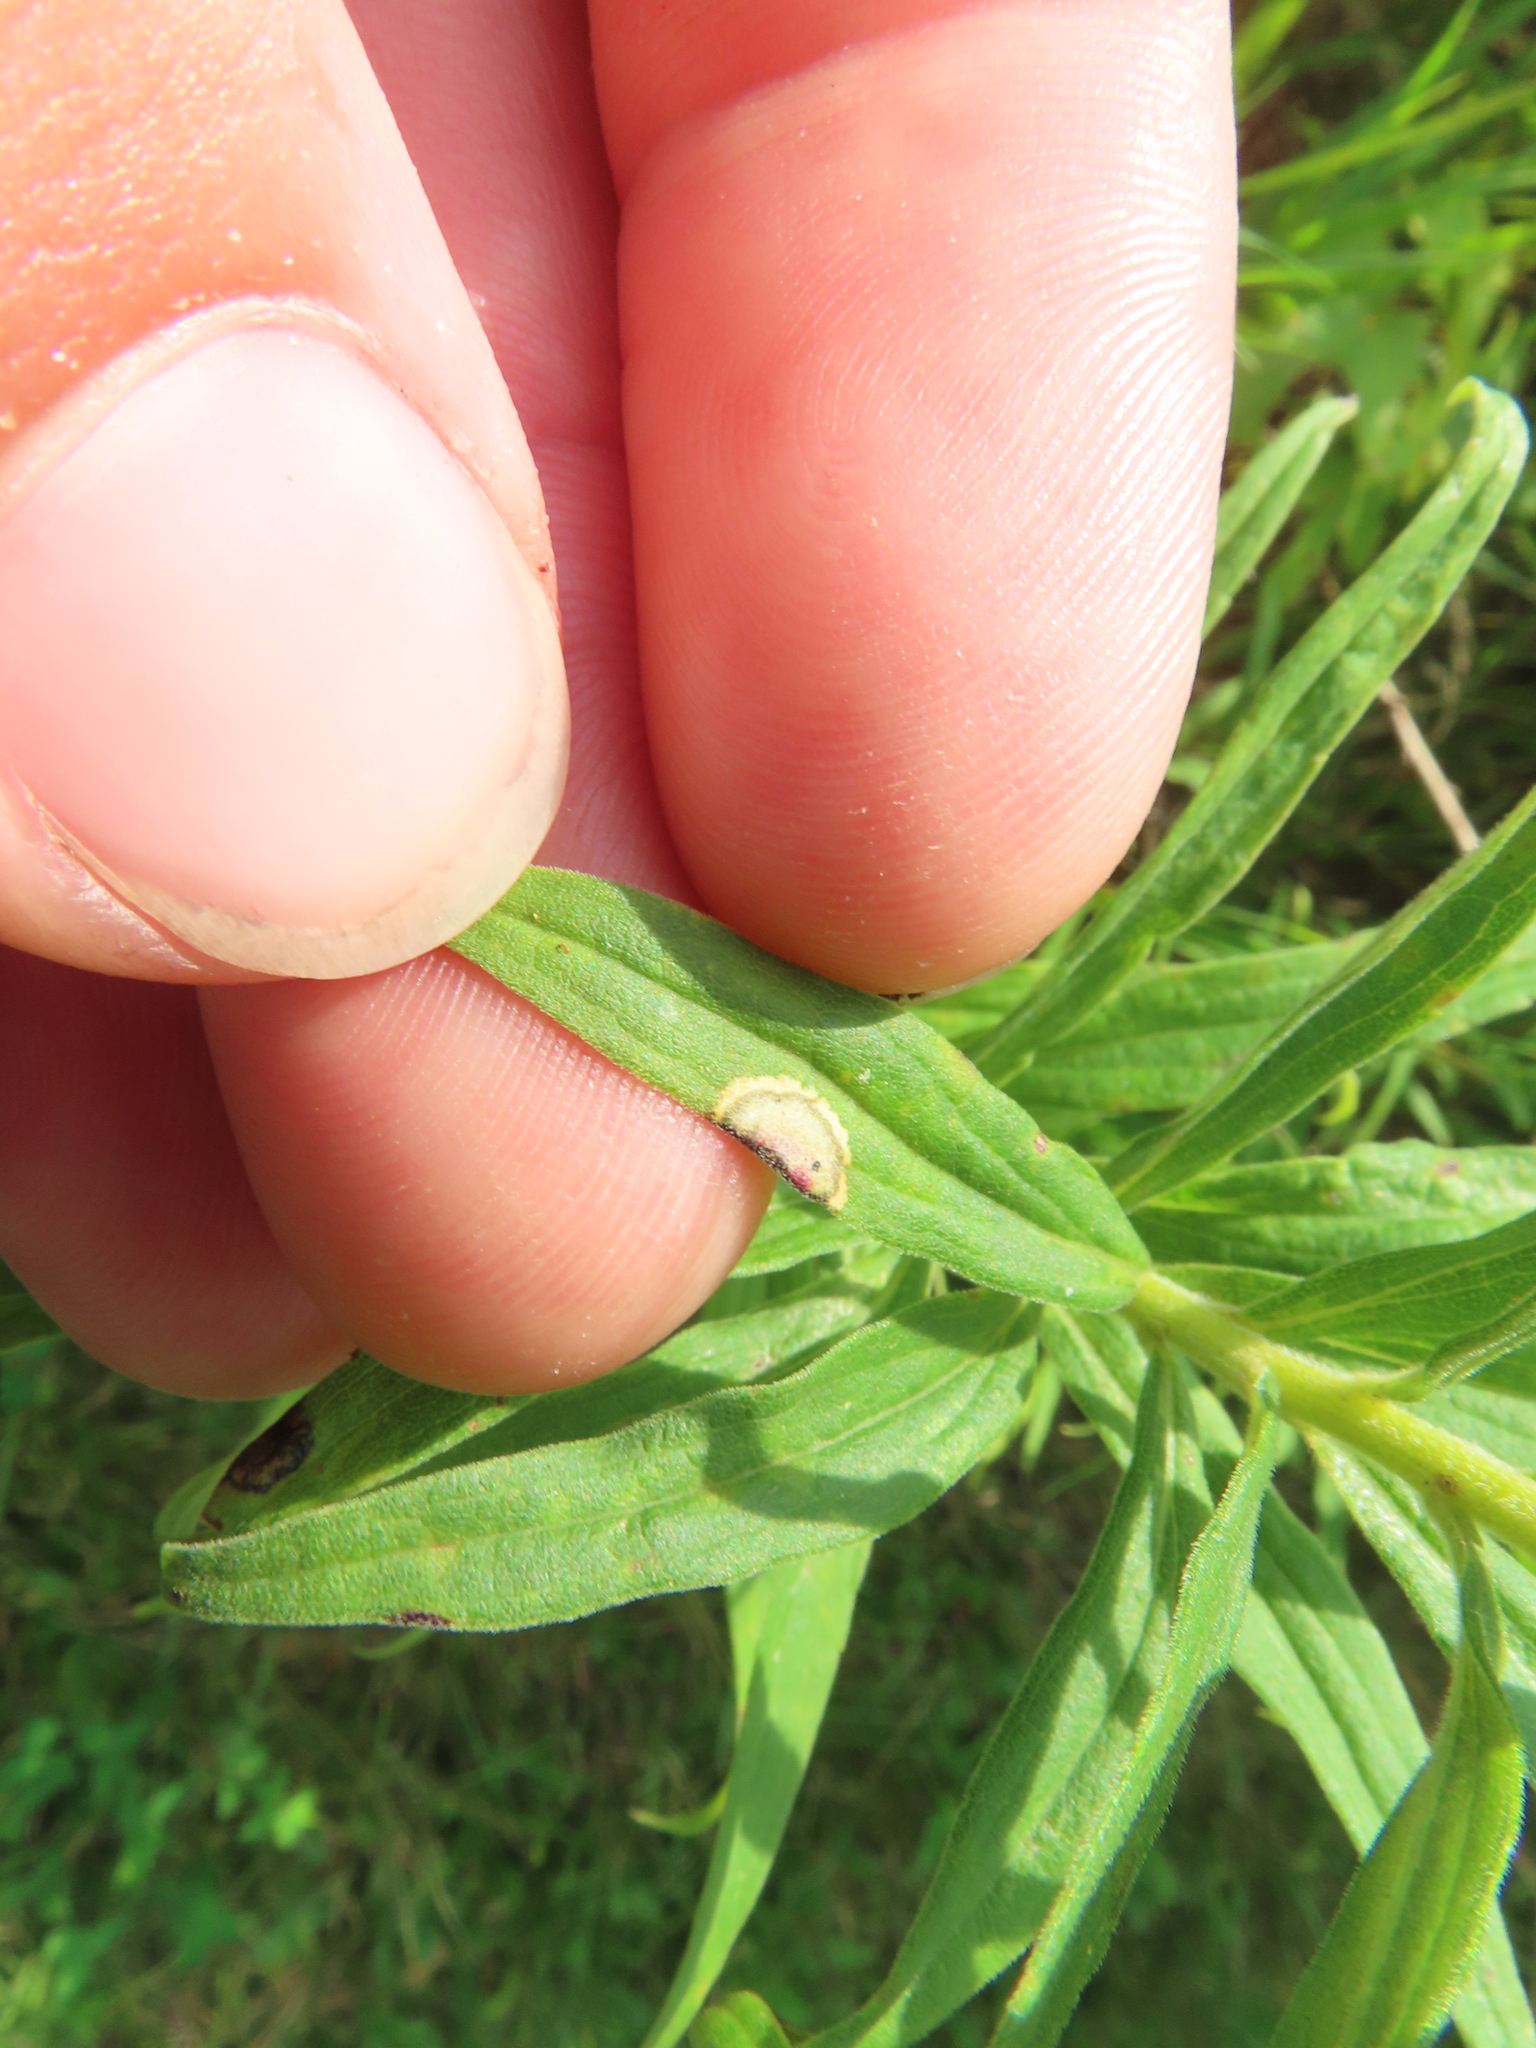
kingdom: Animalia
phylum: Arthropoda
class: Insecta
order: Diptera
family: Cecidomyiidae
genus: Asteromyia
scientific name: Asteromyia carbonifera
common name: Carbonifera goldenrod gall midge
